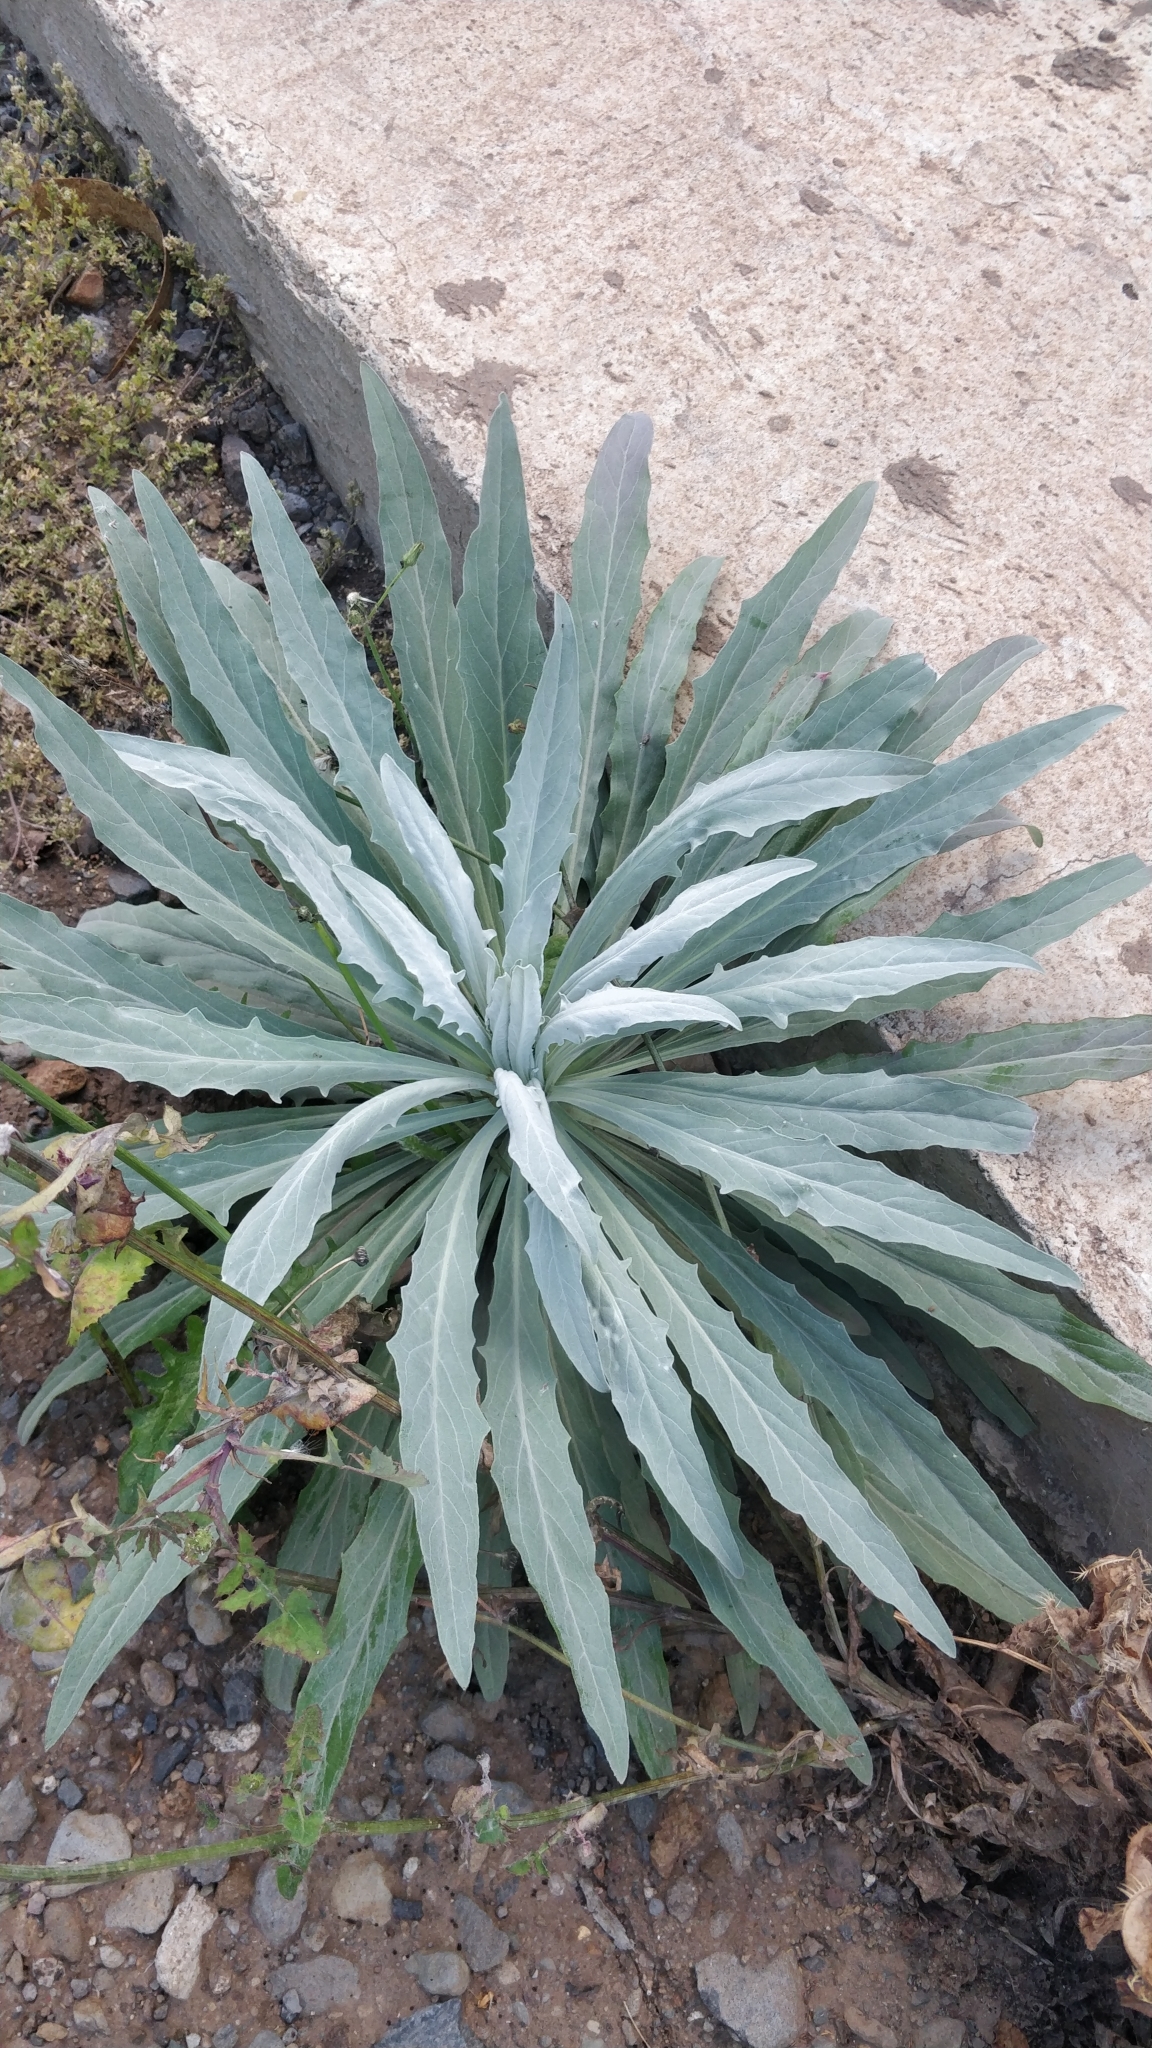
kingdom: Plantae
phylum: Tracheophyta
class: Magnoliopsida
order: Asterales
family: Asteraceae
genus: Andryala
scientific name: Andryala glandulosa
